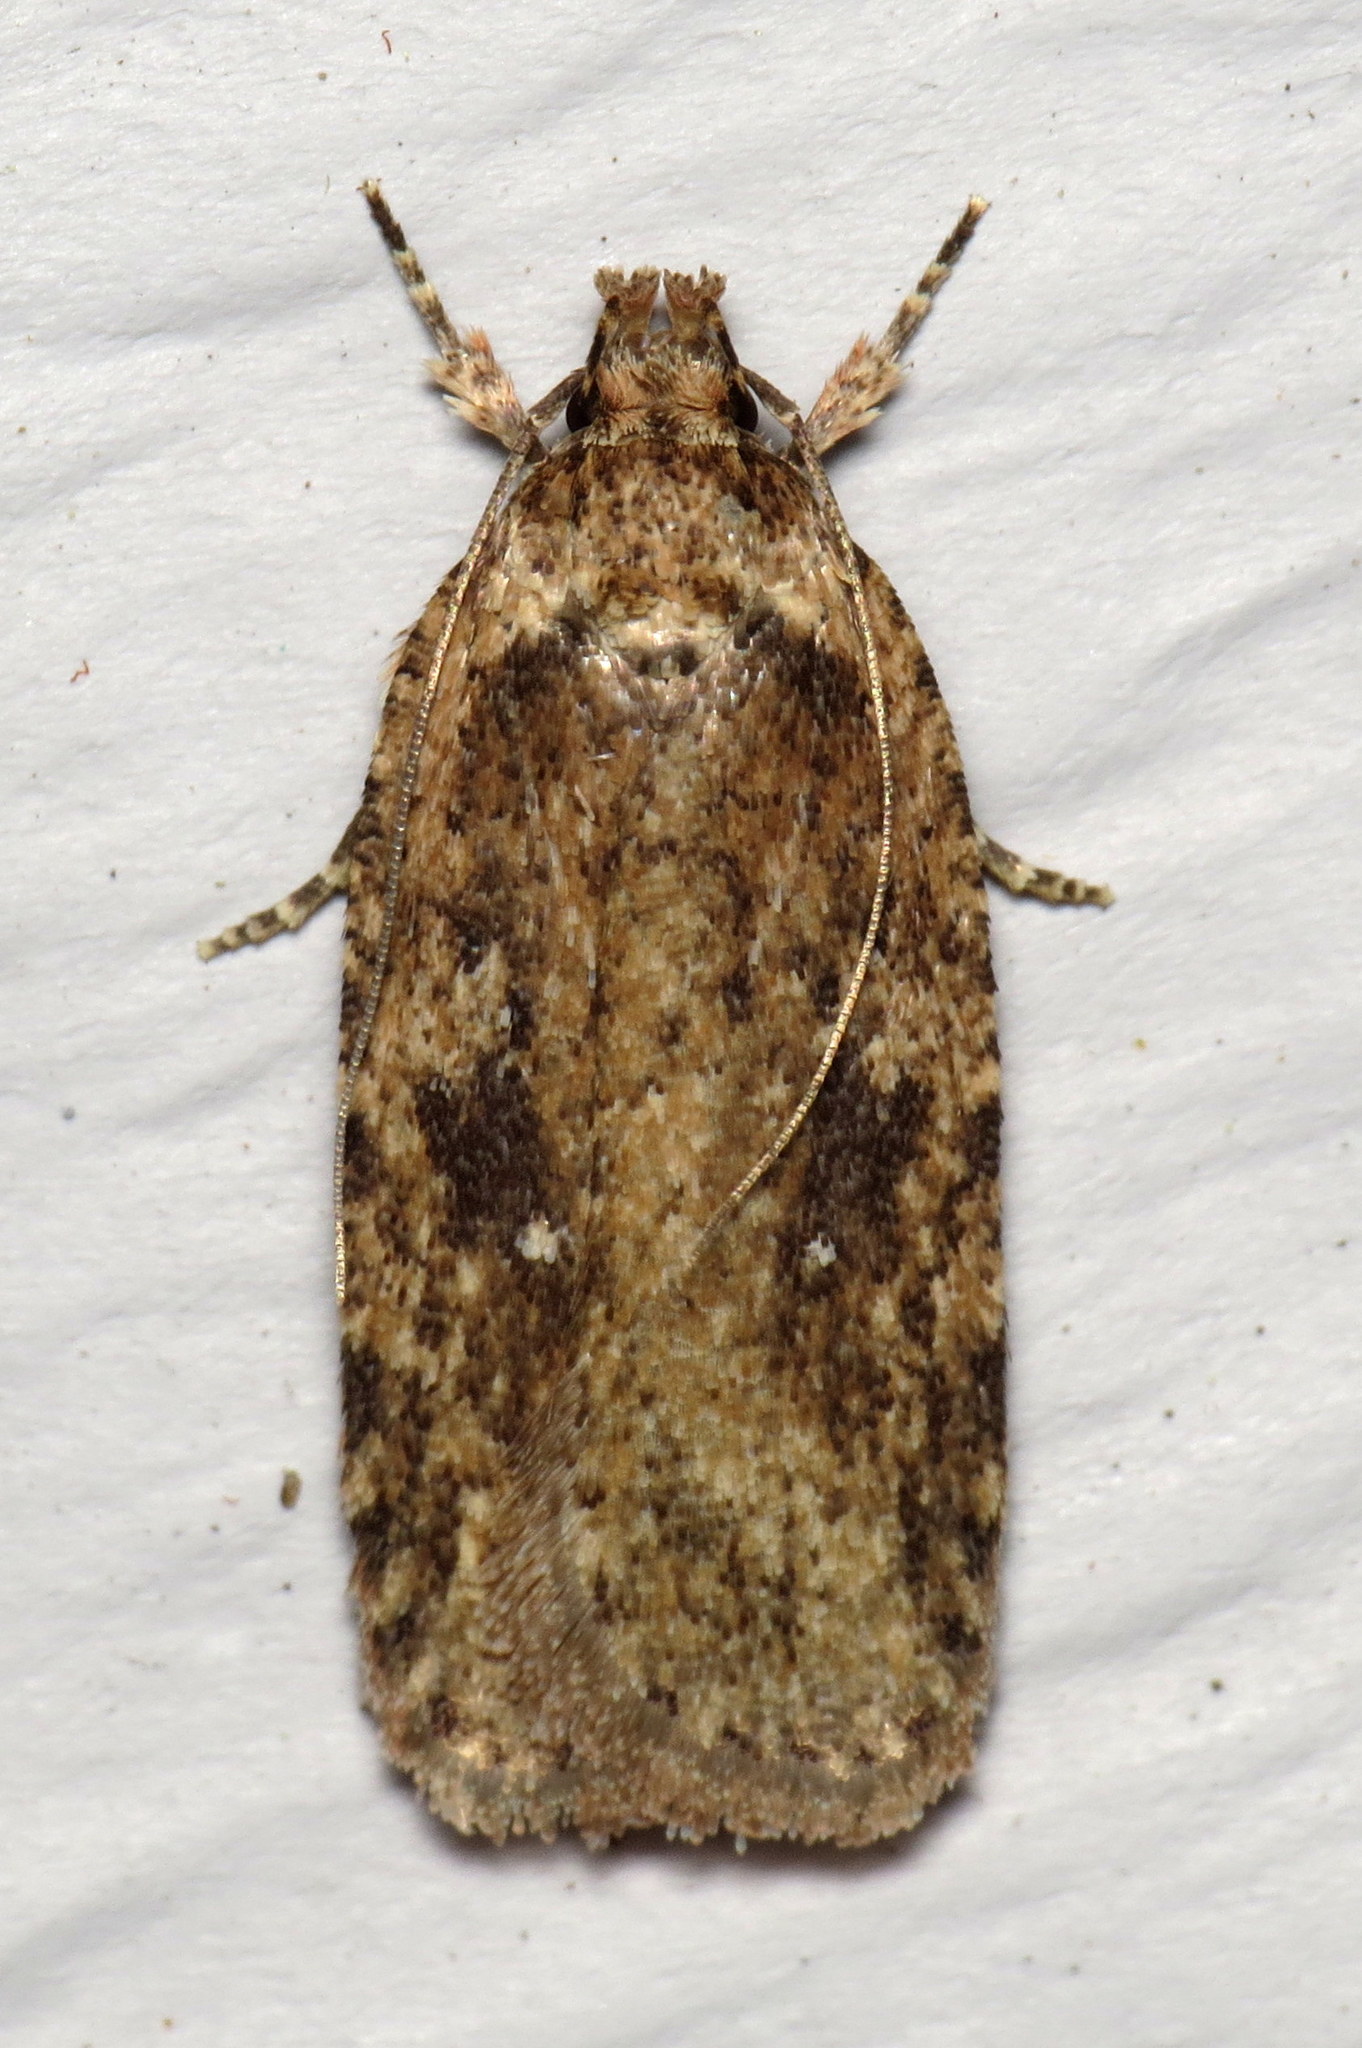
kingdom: Animalia
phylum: Arthropoda
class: Insecta
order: Lepidoptera
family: Depressariidae
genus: Agonopterix
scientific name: Agonopterix pulvipennella
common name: Goldenrod leafffolder
